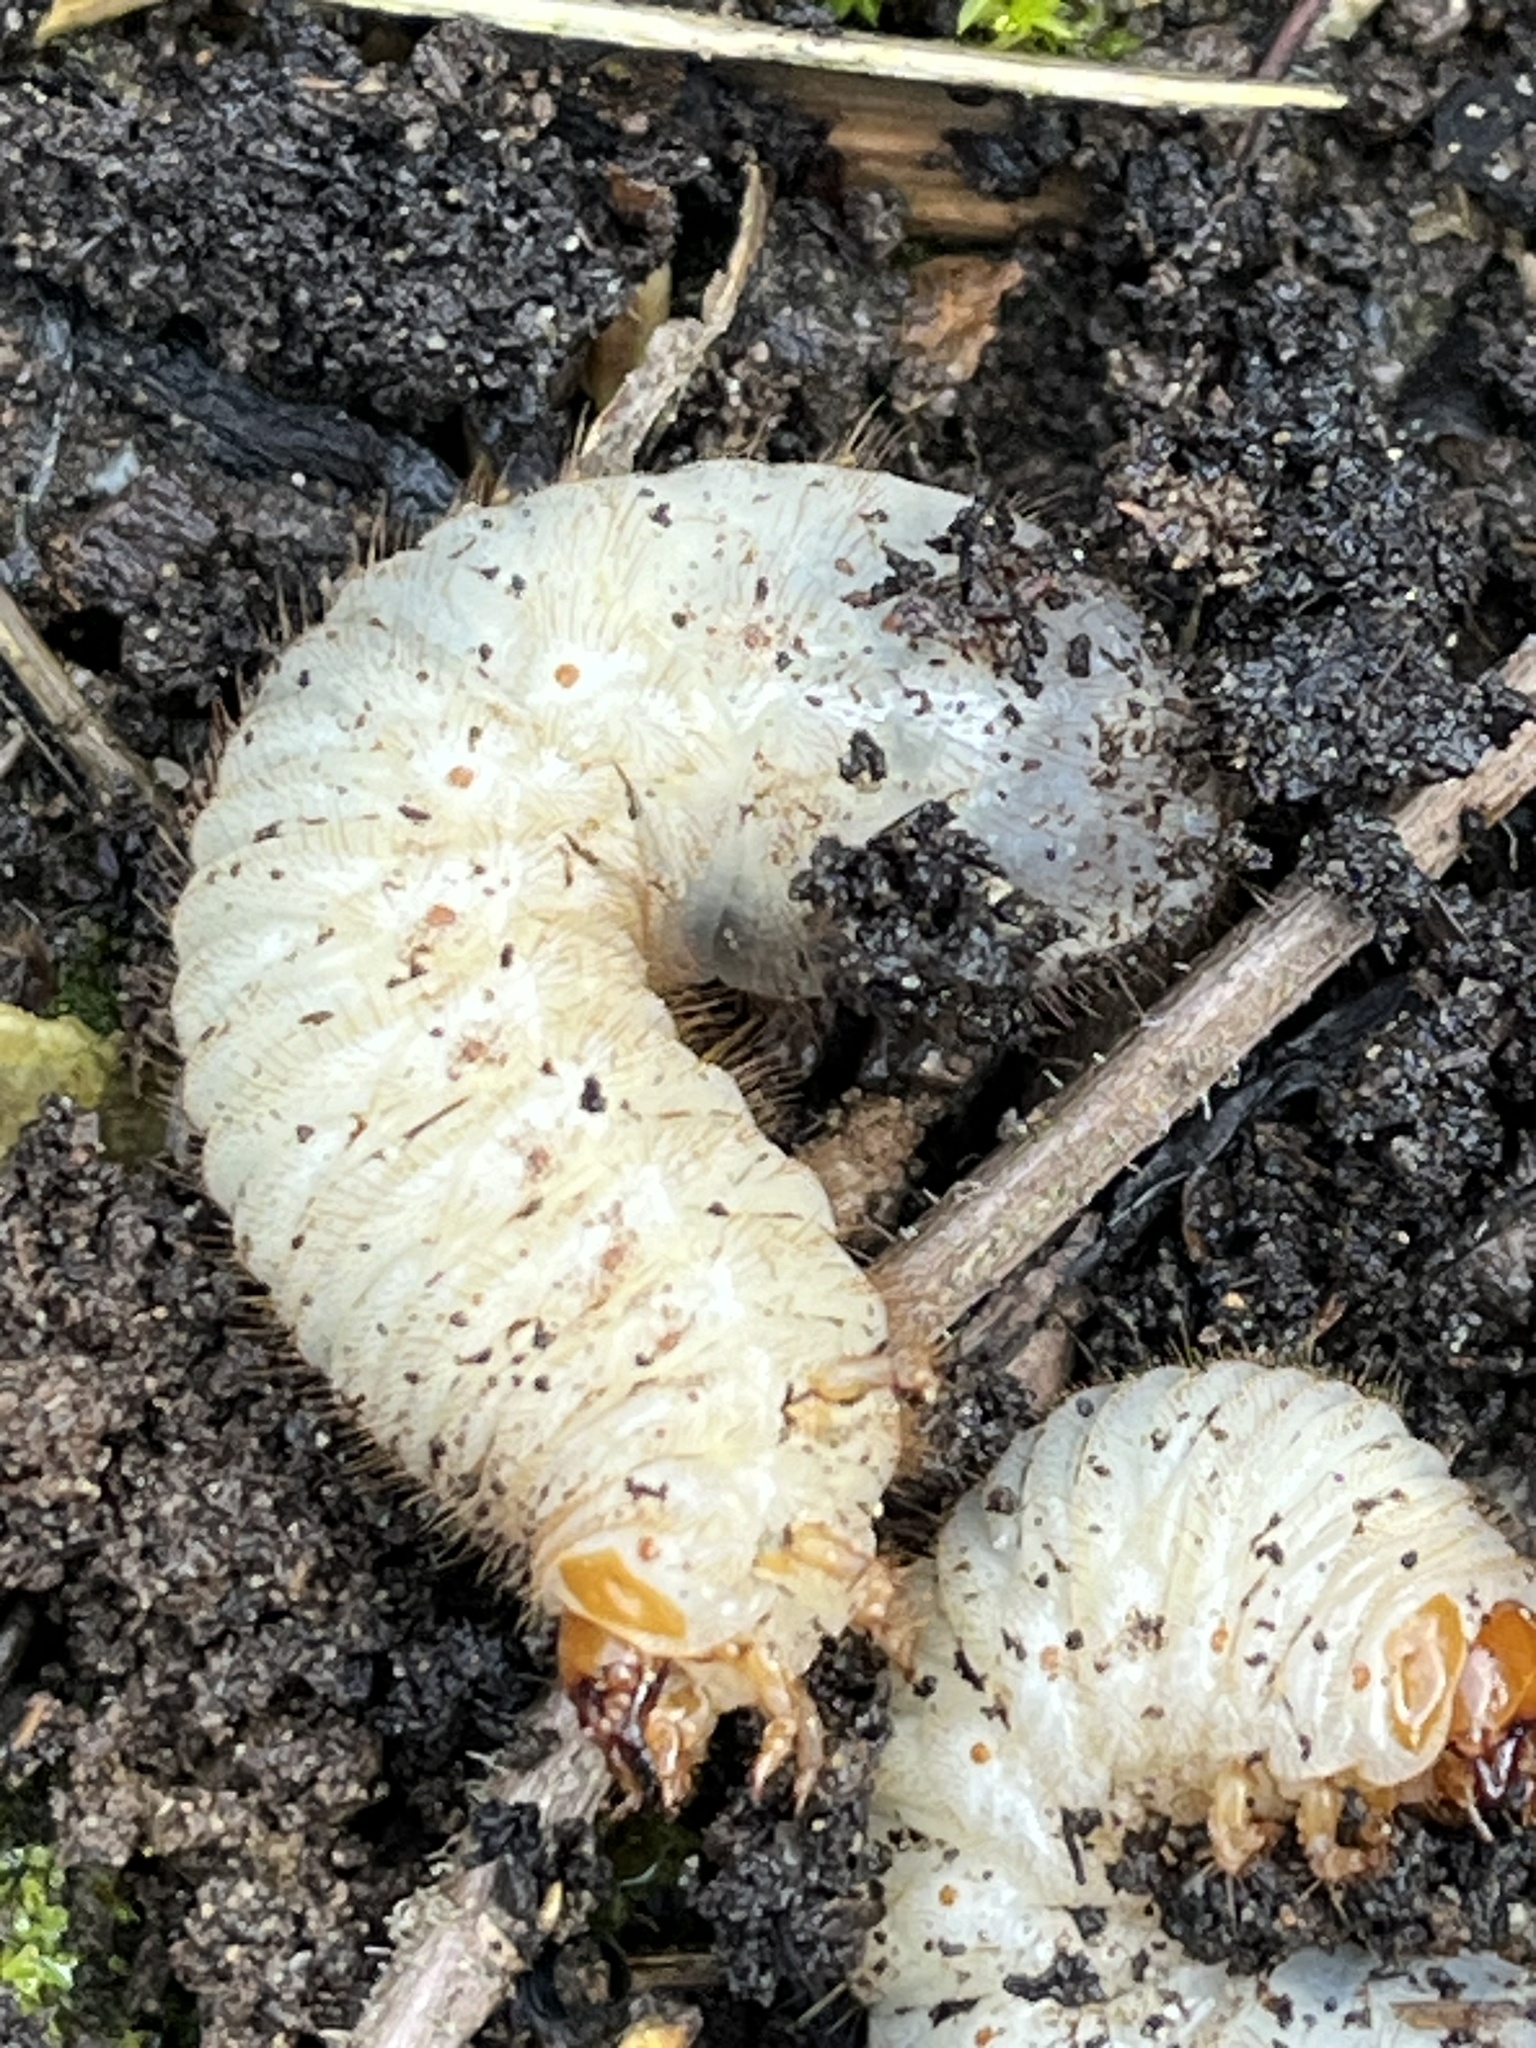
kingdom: Animalia
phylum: Arthropoda
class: Insecta
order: Coleoptera
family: Scarabaeidae
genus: Amphimallon
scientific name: Amphimallon majale
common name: European chafer
